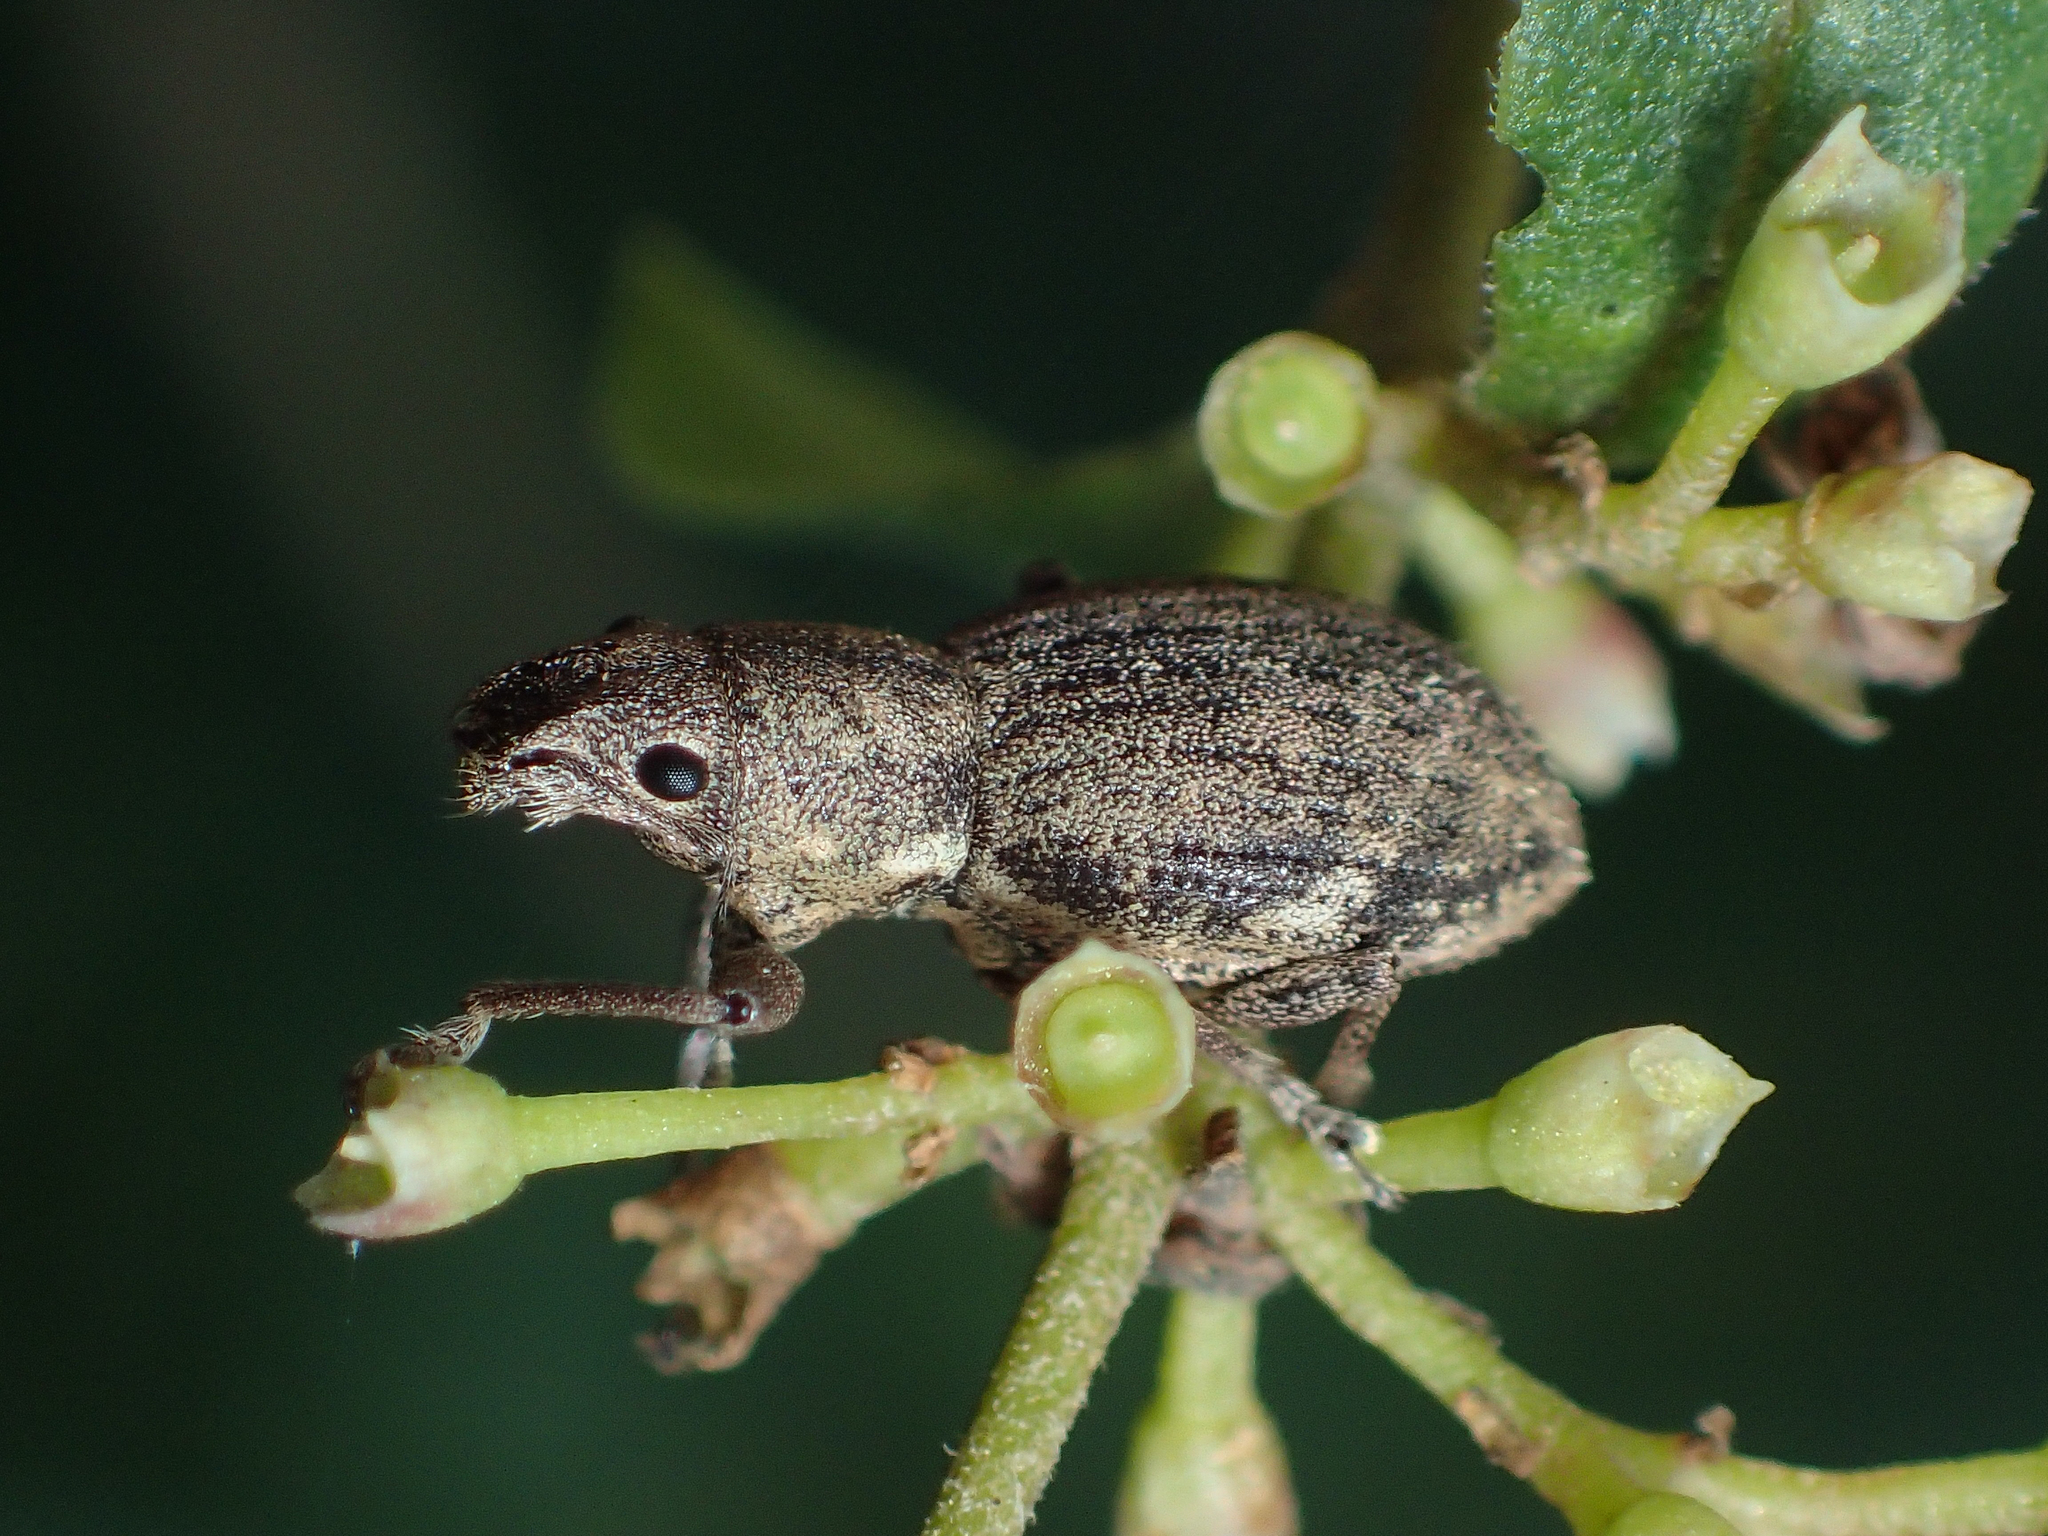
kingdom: Animalia
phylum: Arthropoda
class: Insecta
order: Coleoptera
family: Curculionidae
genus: Naupactus
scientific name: Naupactus cervinus
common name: Fuller rose beetle
